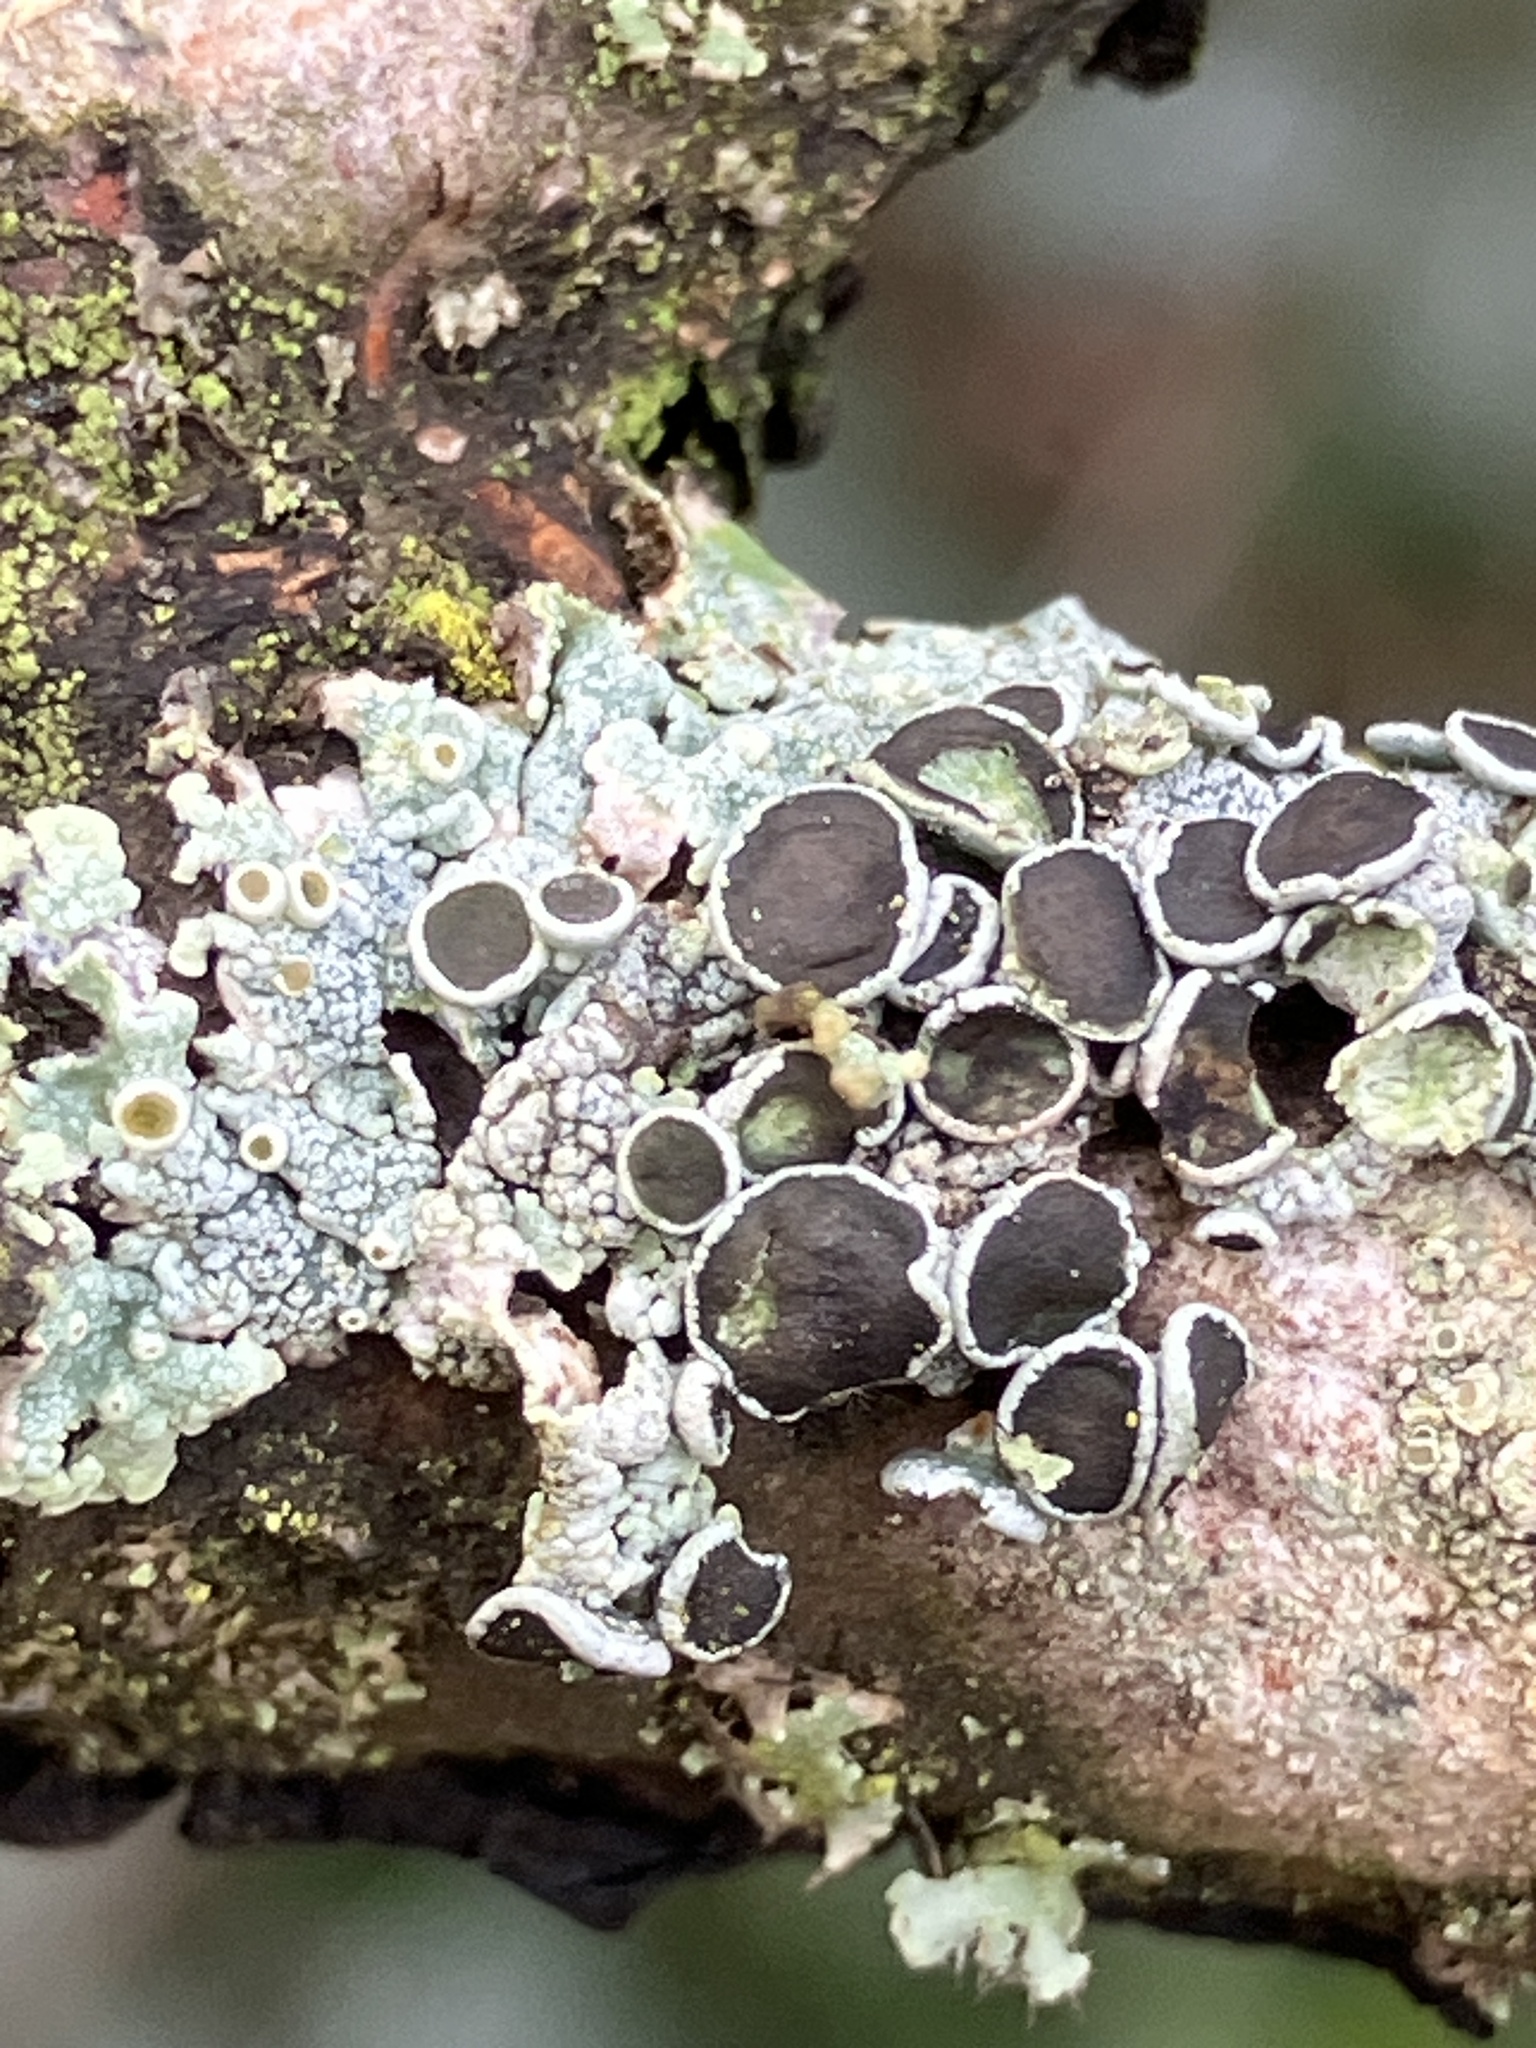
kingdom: Fungi
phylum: Ascomycota
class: Lecanoromycetes
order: Caliciales
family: Physciaceae
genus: Physcia
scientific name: Physcia aipolia
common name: Hoary rosette lichen
